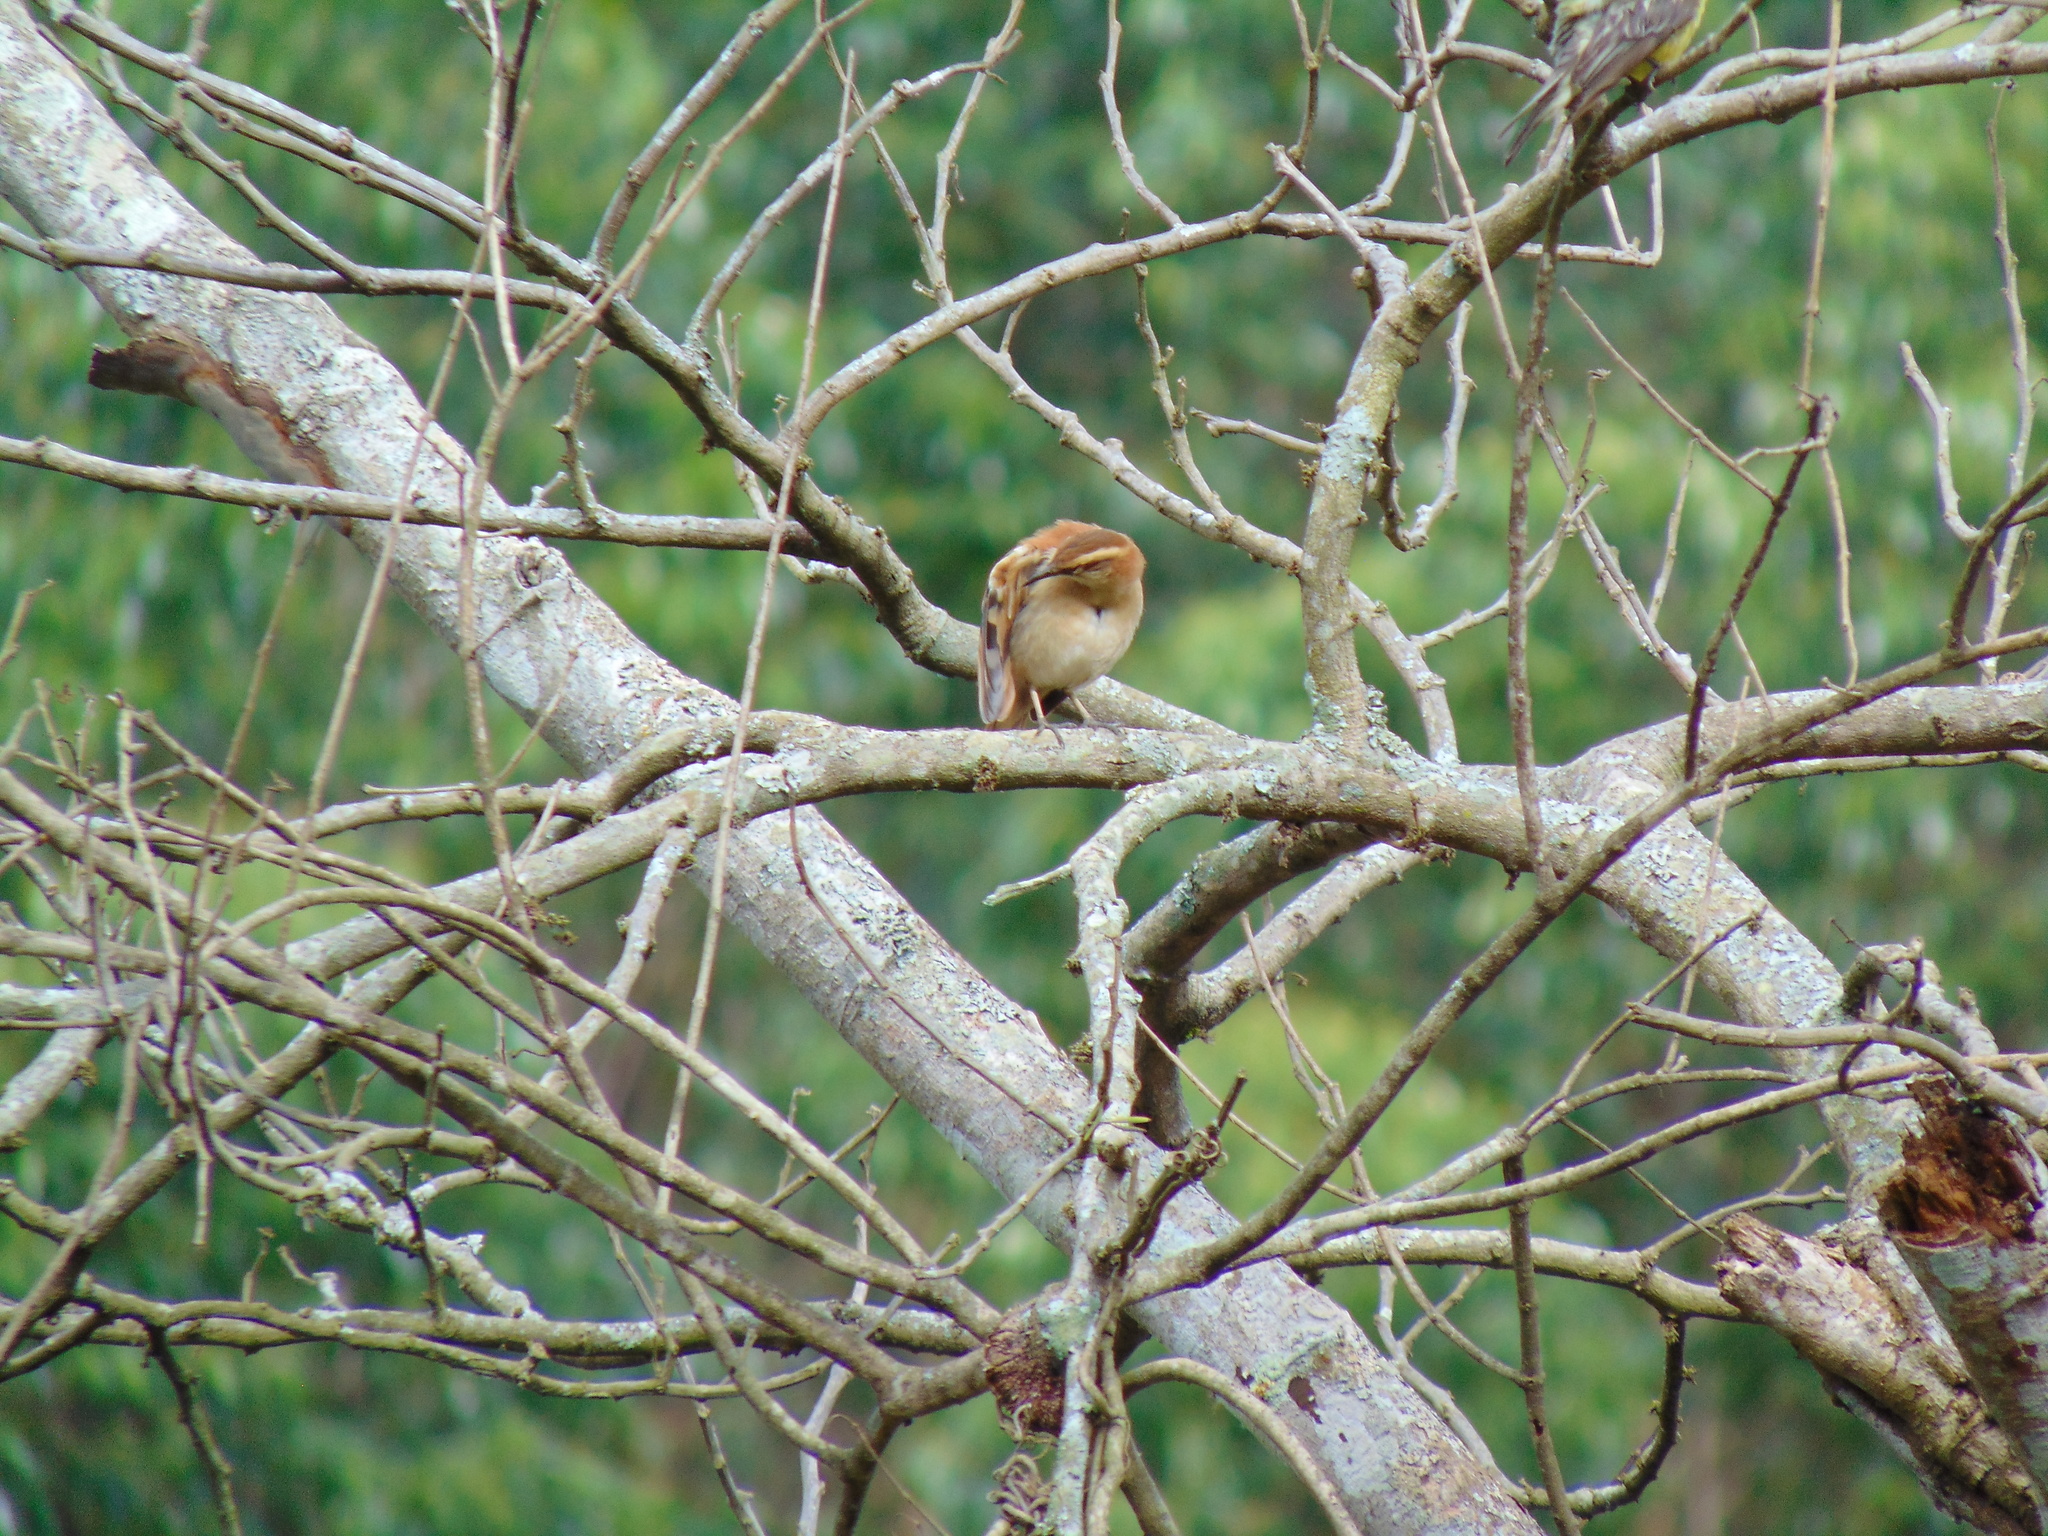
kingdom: Animalia
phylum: Chordata
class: Aves
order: Passeriformes
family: Furnariidae
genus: Furnarius
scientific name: Furnarius rufus
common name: Rufous hornero
